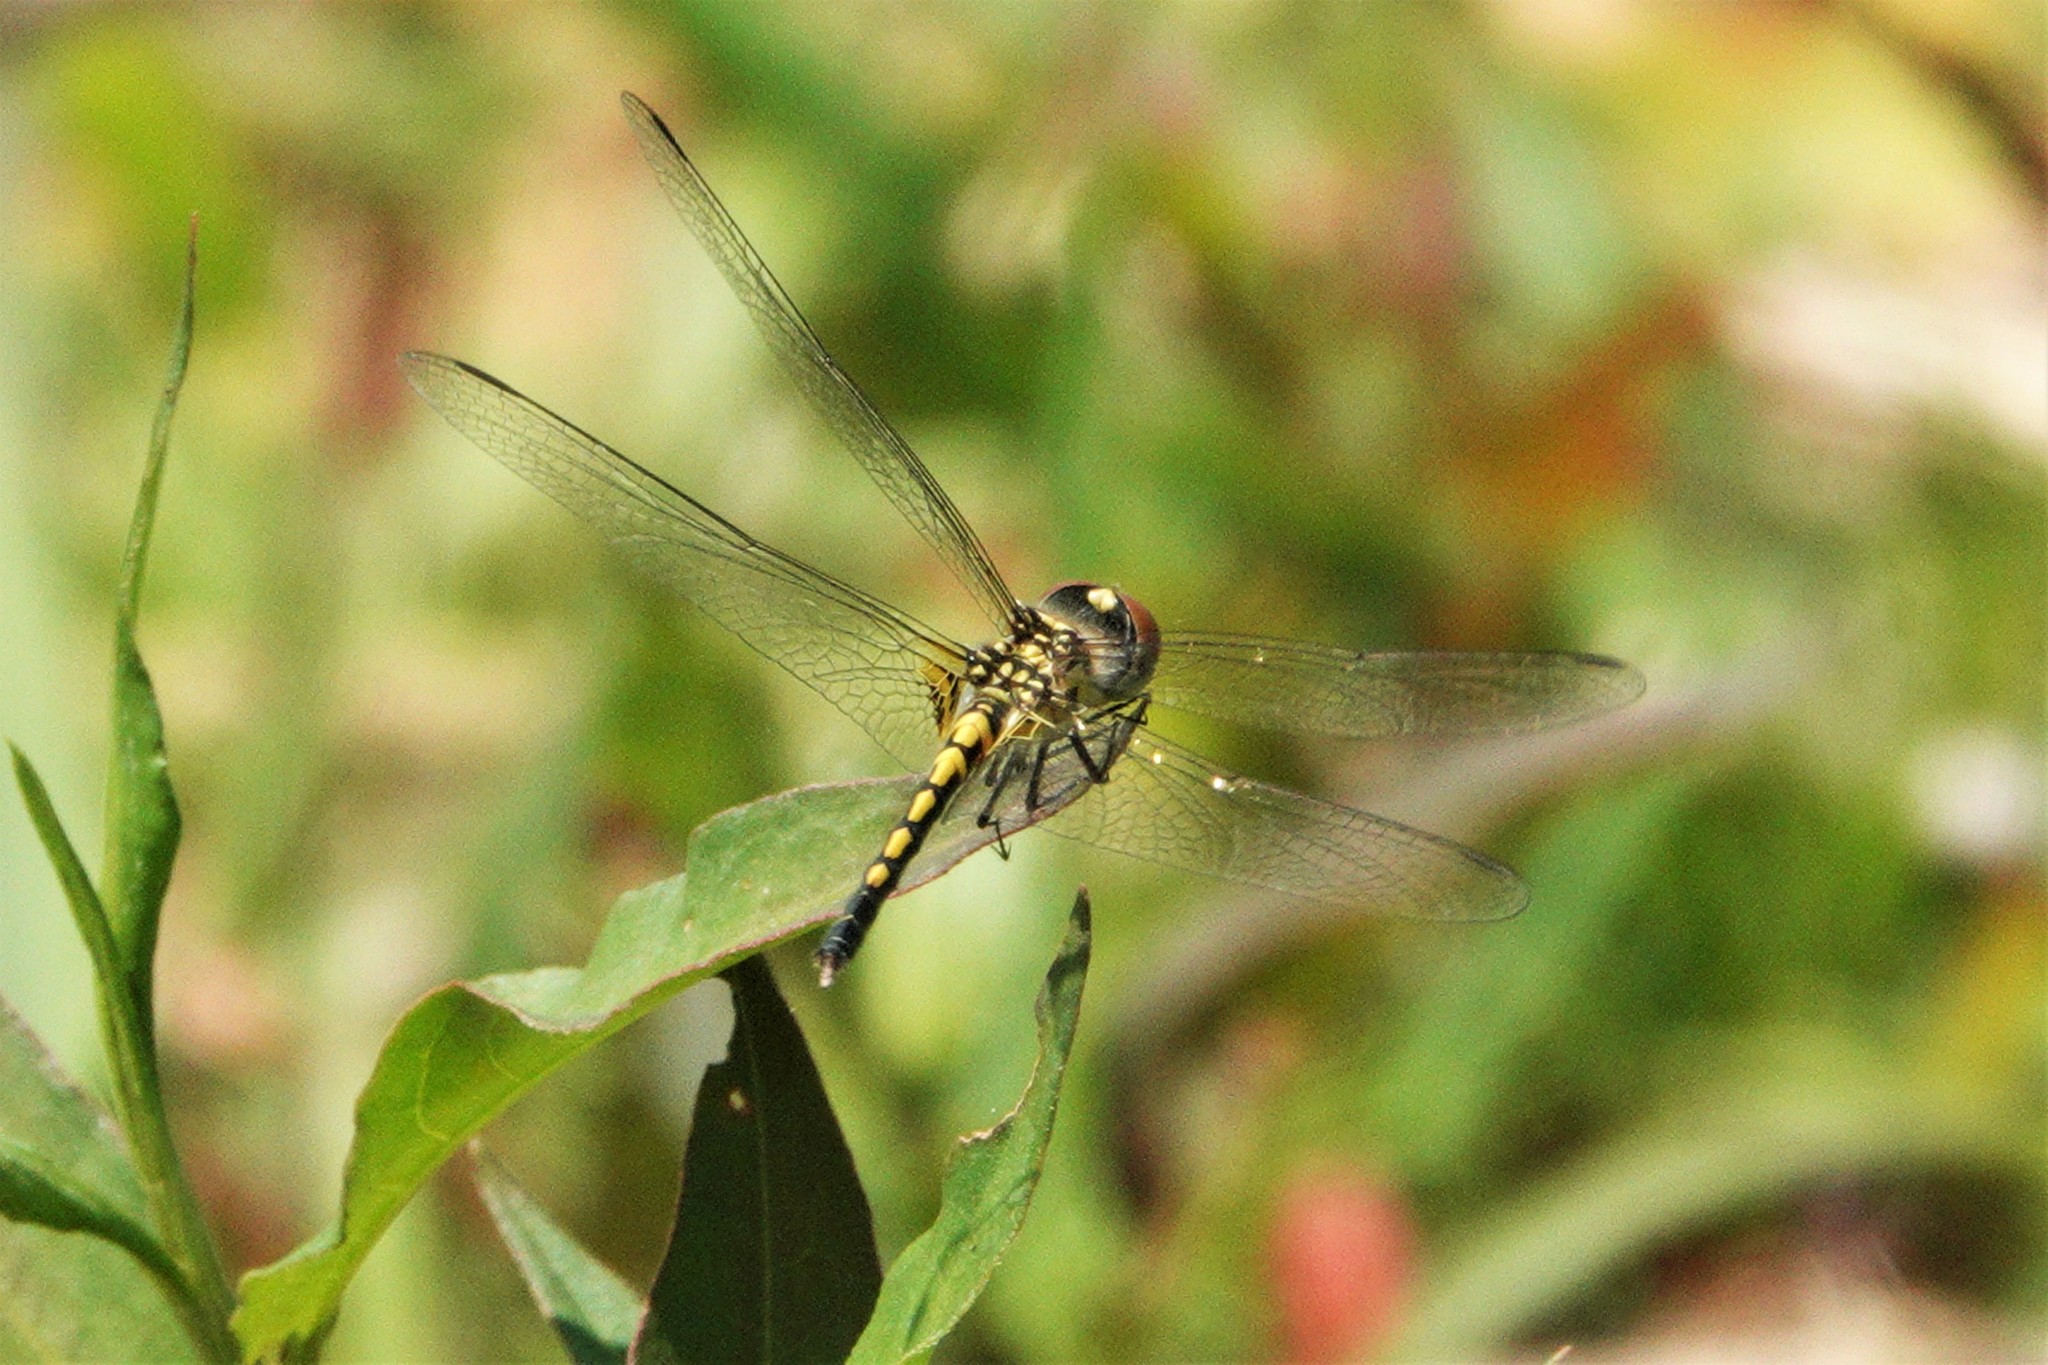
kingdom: Animalia
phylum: Arthropoda
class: Insecta
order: Odonata
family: Libellulidae
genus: Celithemis
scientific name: Celithemis ornata
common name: Ornate pennant
